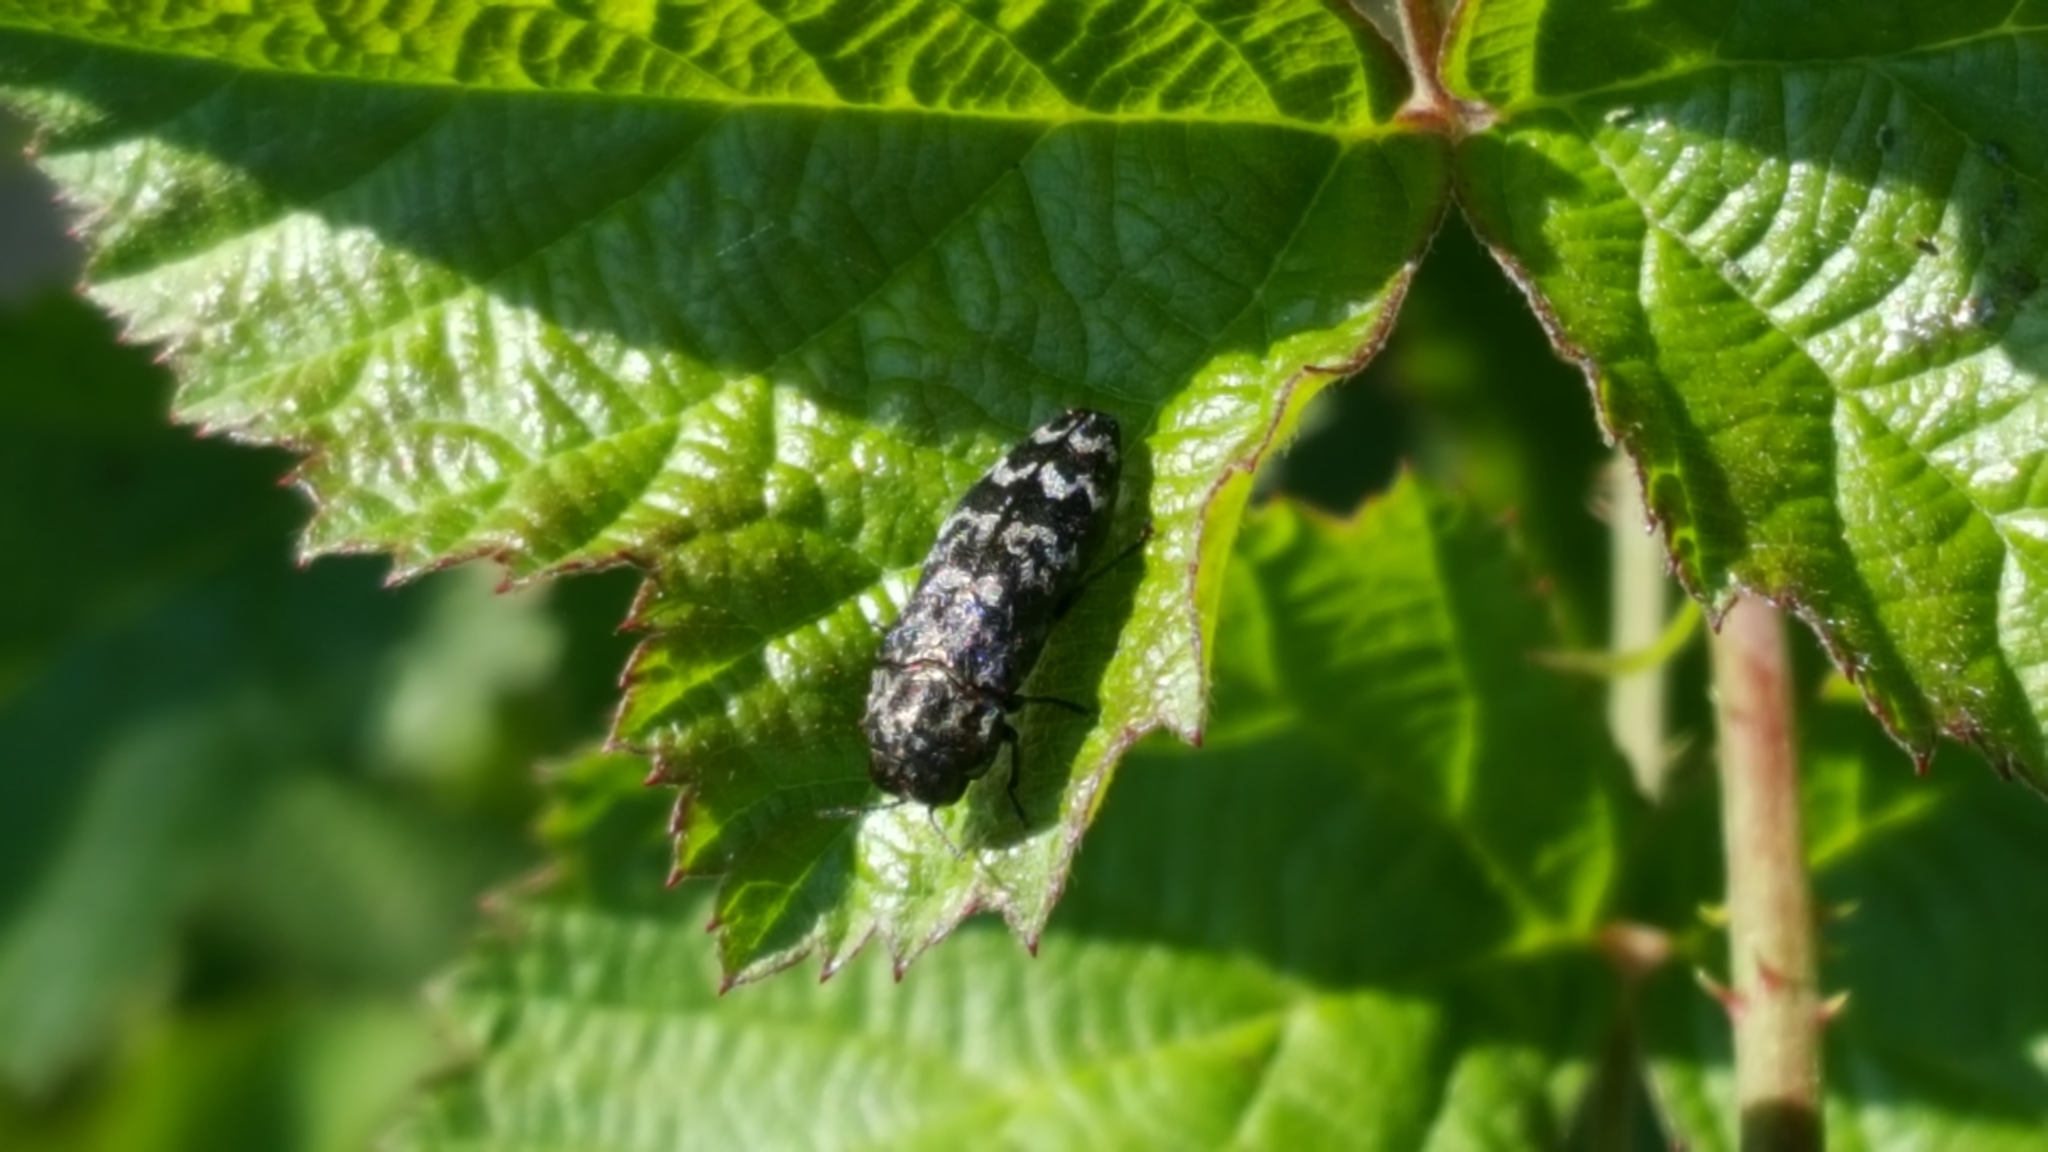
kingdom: Animalia
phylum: Arthropoda
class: Insecta
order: Coleoptera
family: Buprestidae
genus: Coraebus
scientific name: Coraebus rubi
